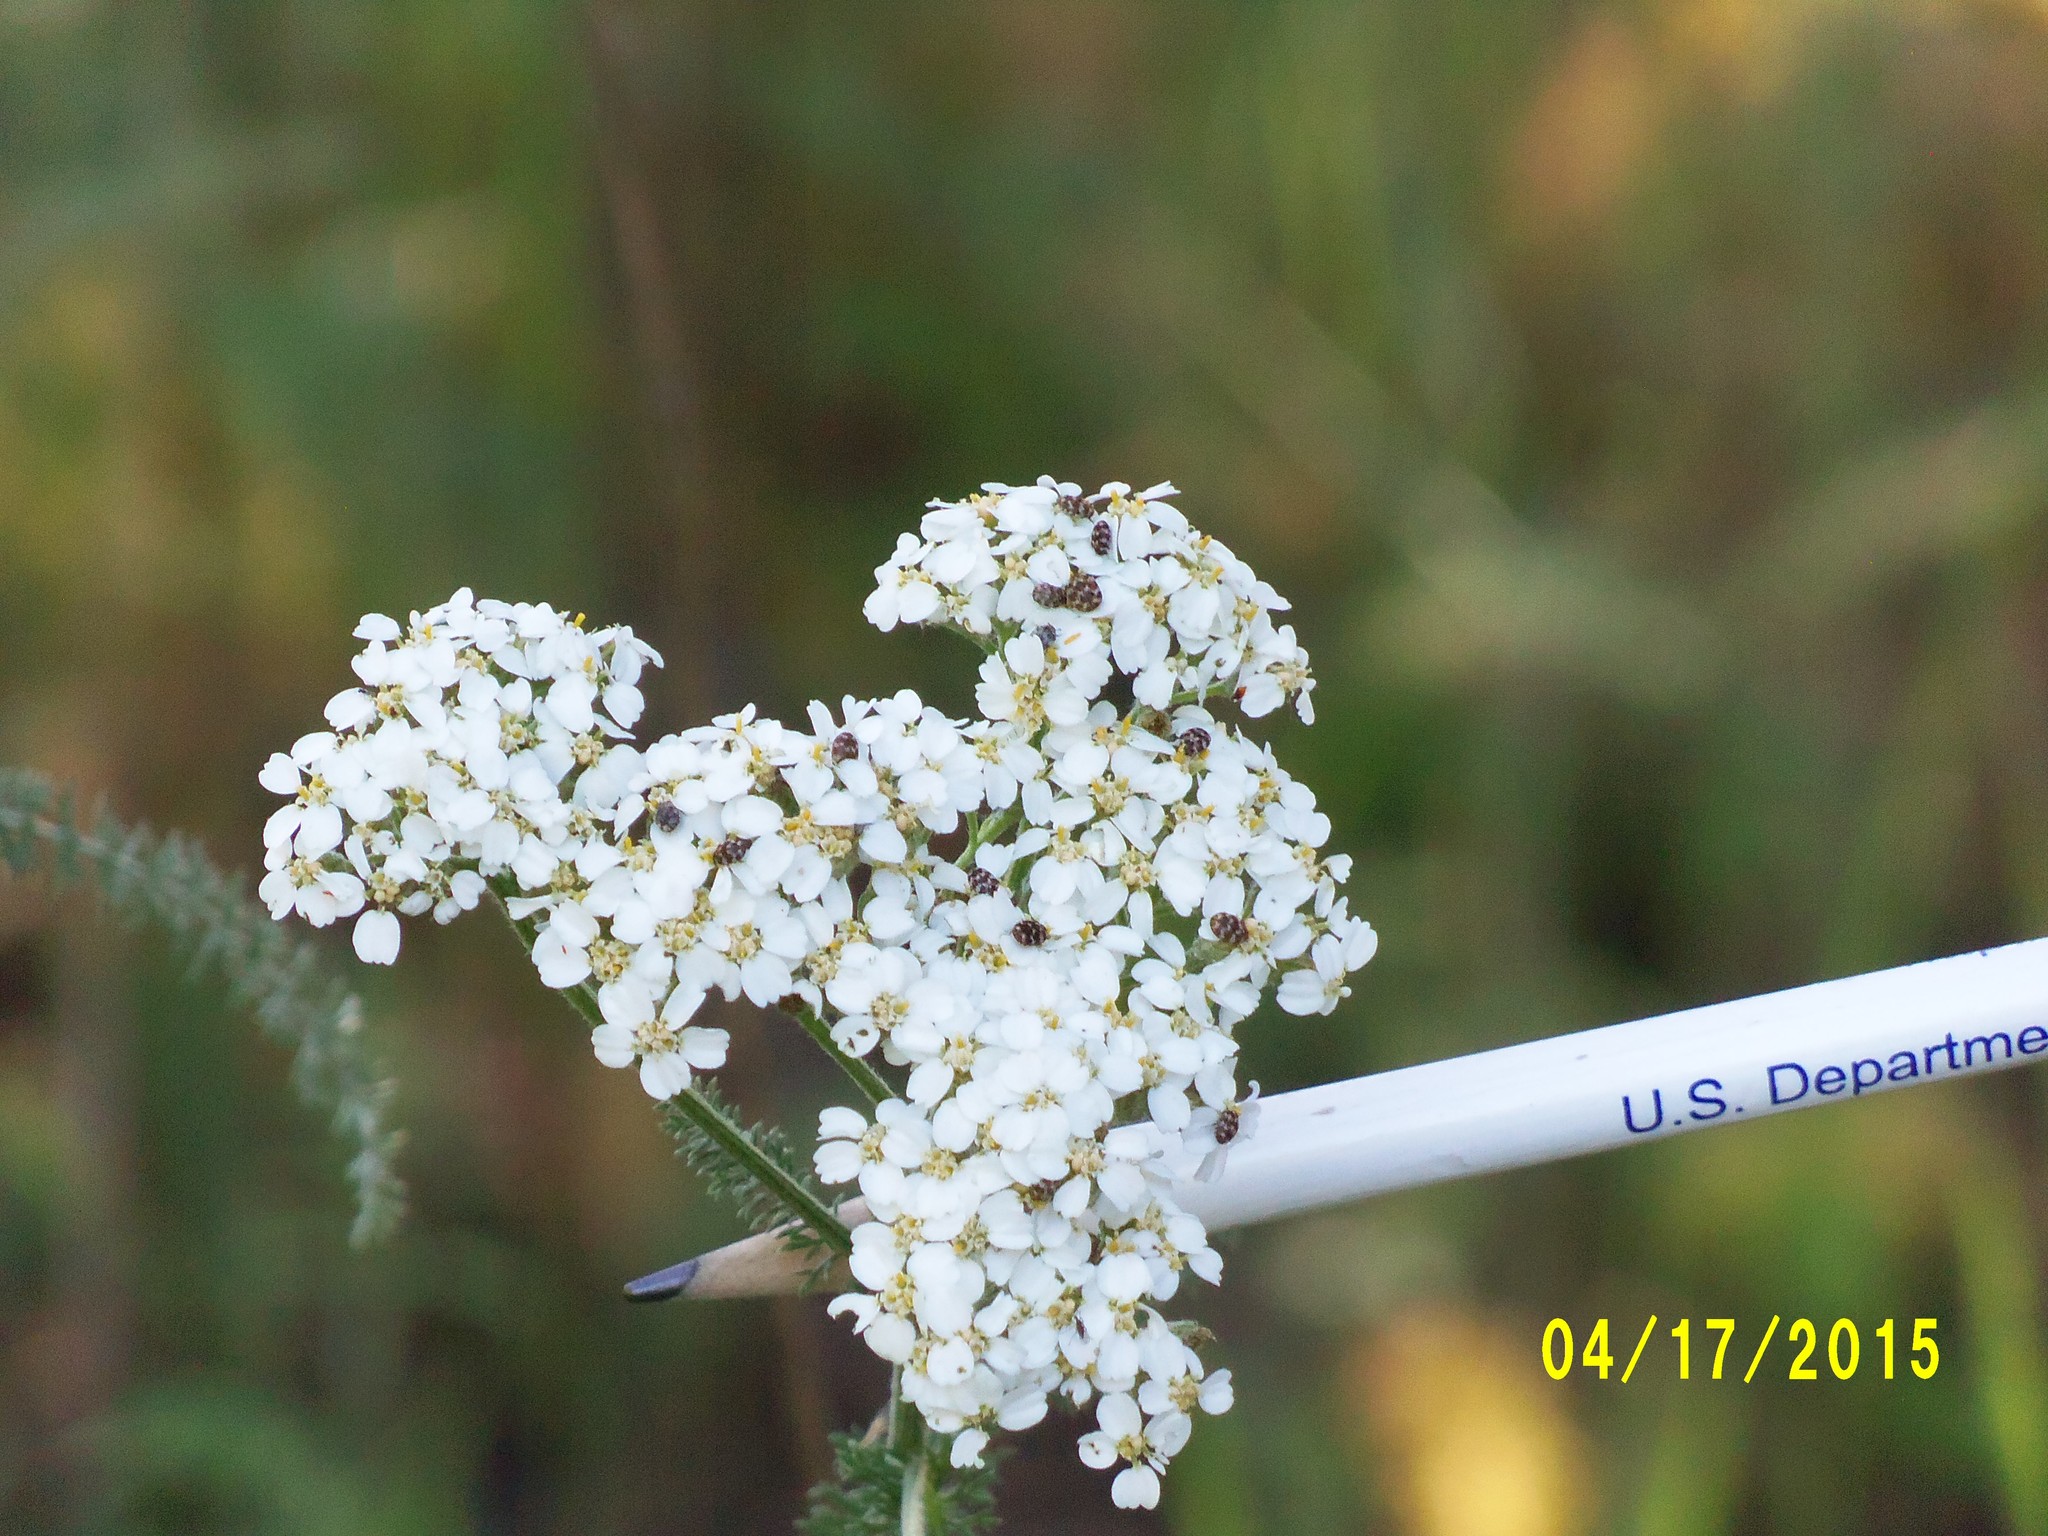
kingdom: Plantae
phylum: Tracheophyta
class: Magnoliopsida
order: Asterales
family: Asteraceae
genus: Achillea
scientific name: Achillea millefolium
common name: Yarrow
